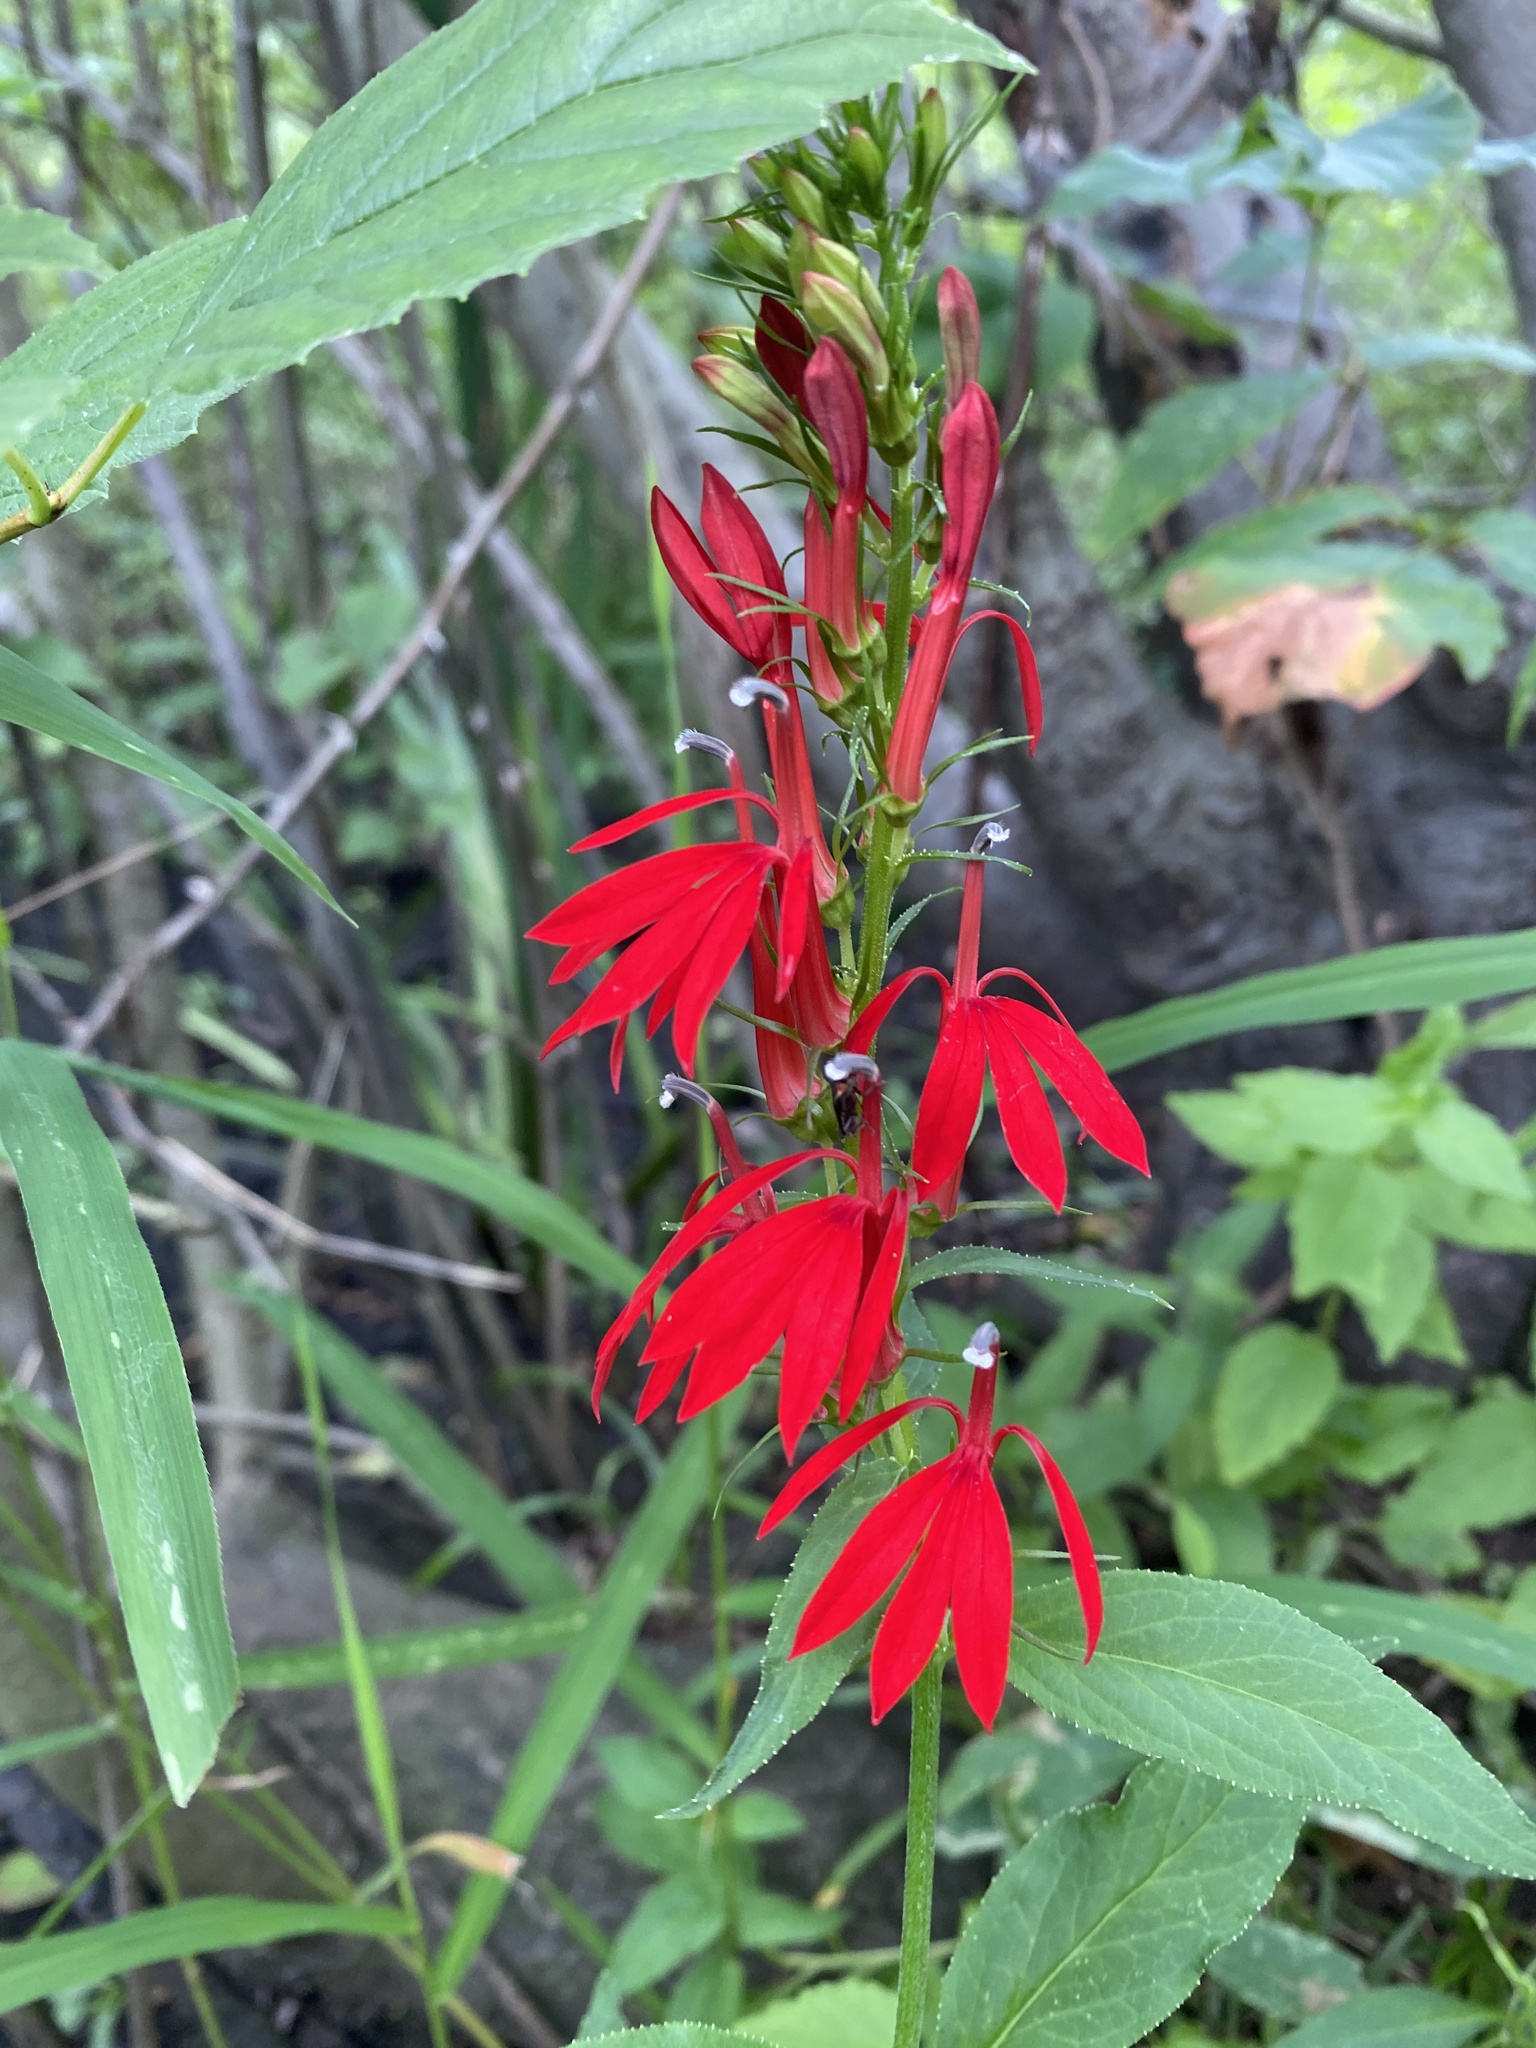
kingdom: Plantae
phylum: Tracheophyta
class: Magnoliopsida
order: Asterales
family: Campanulaceae
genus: Lobelia
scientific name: Lobelia cardinalis
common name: Cardinal flower
